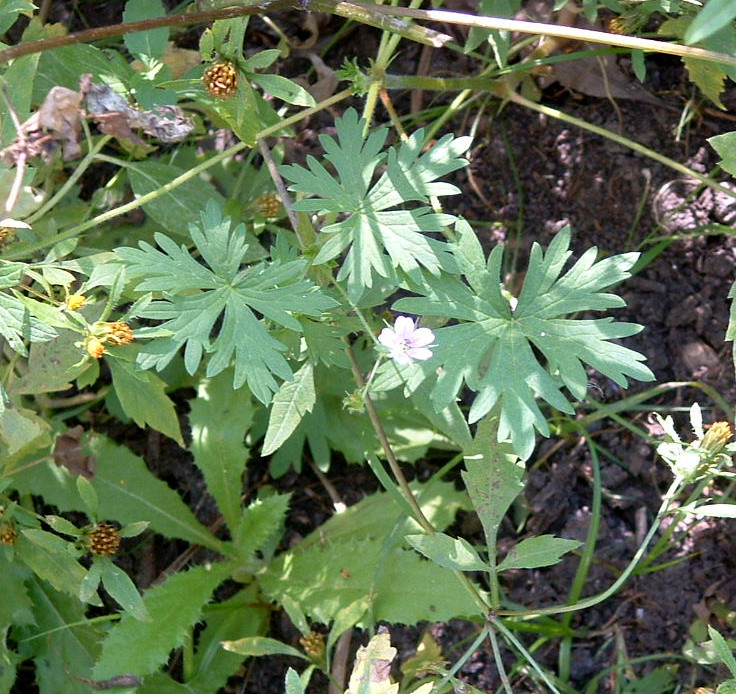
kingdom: Plantae
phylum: Tracheophyta
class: Magnoliopsida
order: Geraniales
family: Geraniaceae
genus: Geranium
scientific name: Geranium bicknellii
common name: Bicknell's cranesbill
